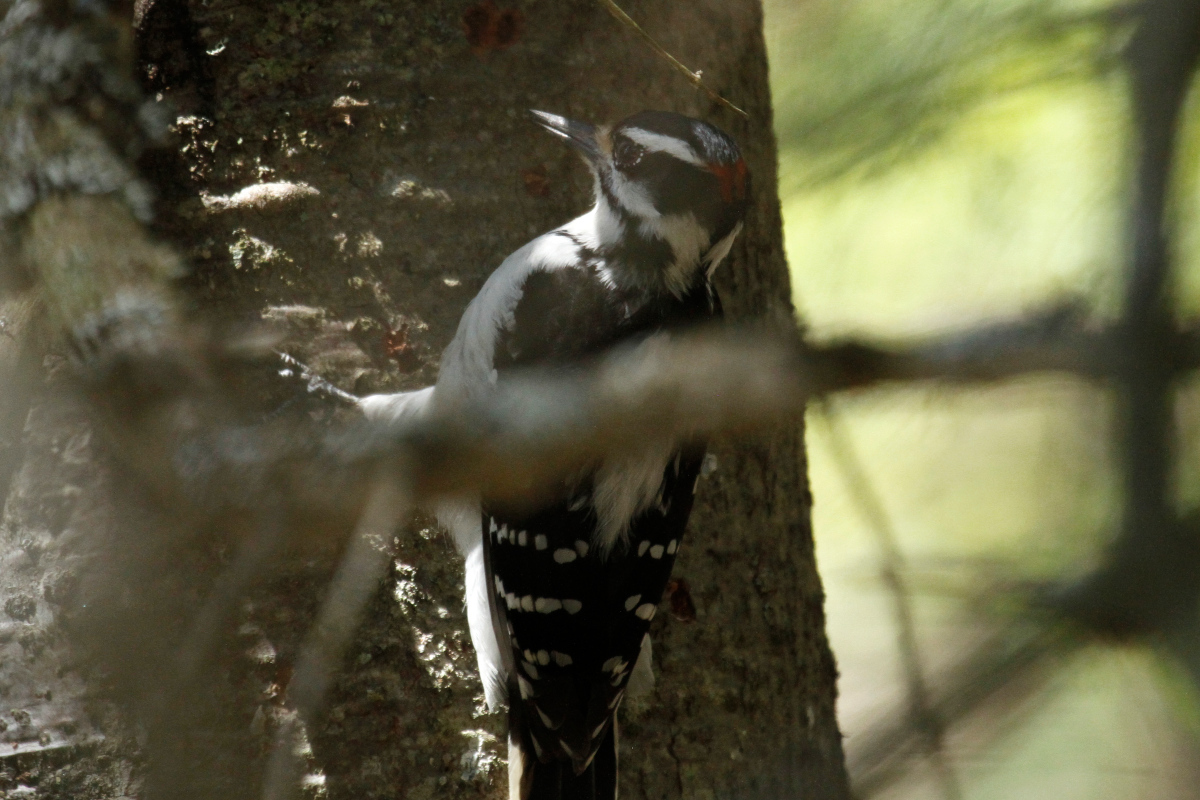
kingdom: Animalia
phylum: Chordata
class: Aves
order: Piciformes
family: Picidae
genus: Leuconotopicus
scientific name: Leuconotopicus villosus
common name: Hairy woodpecker
